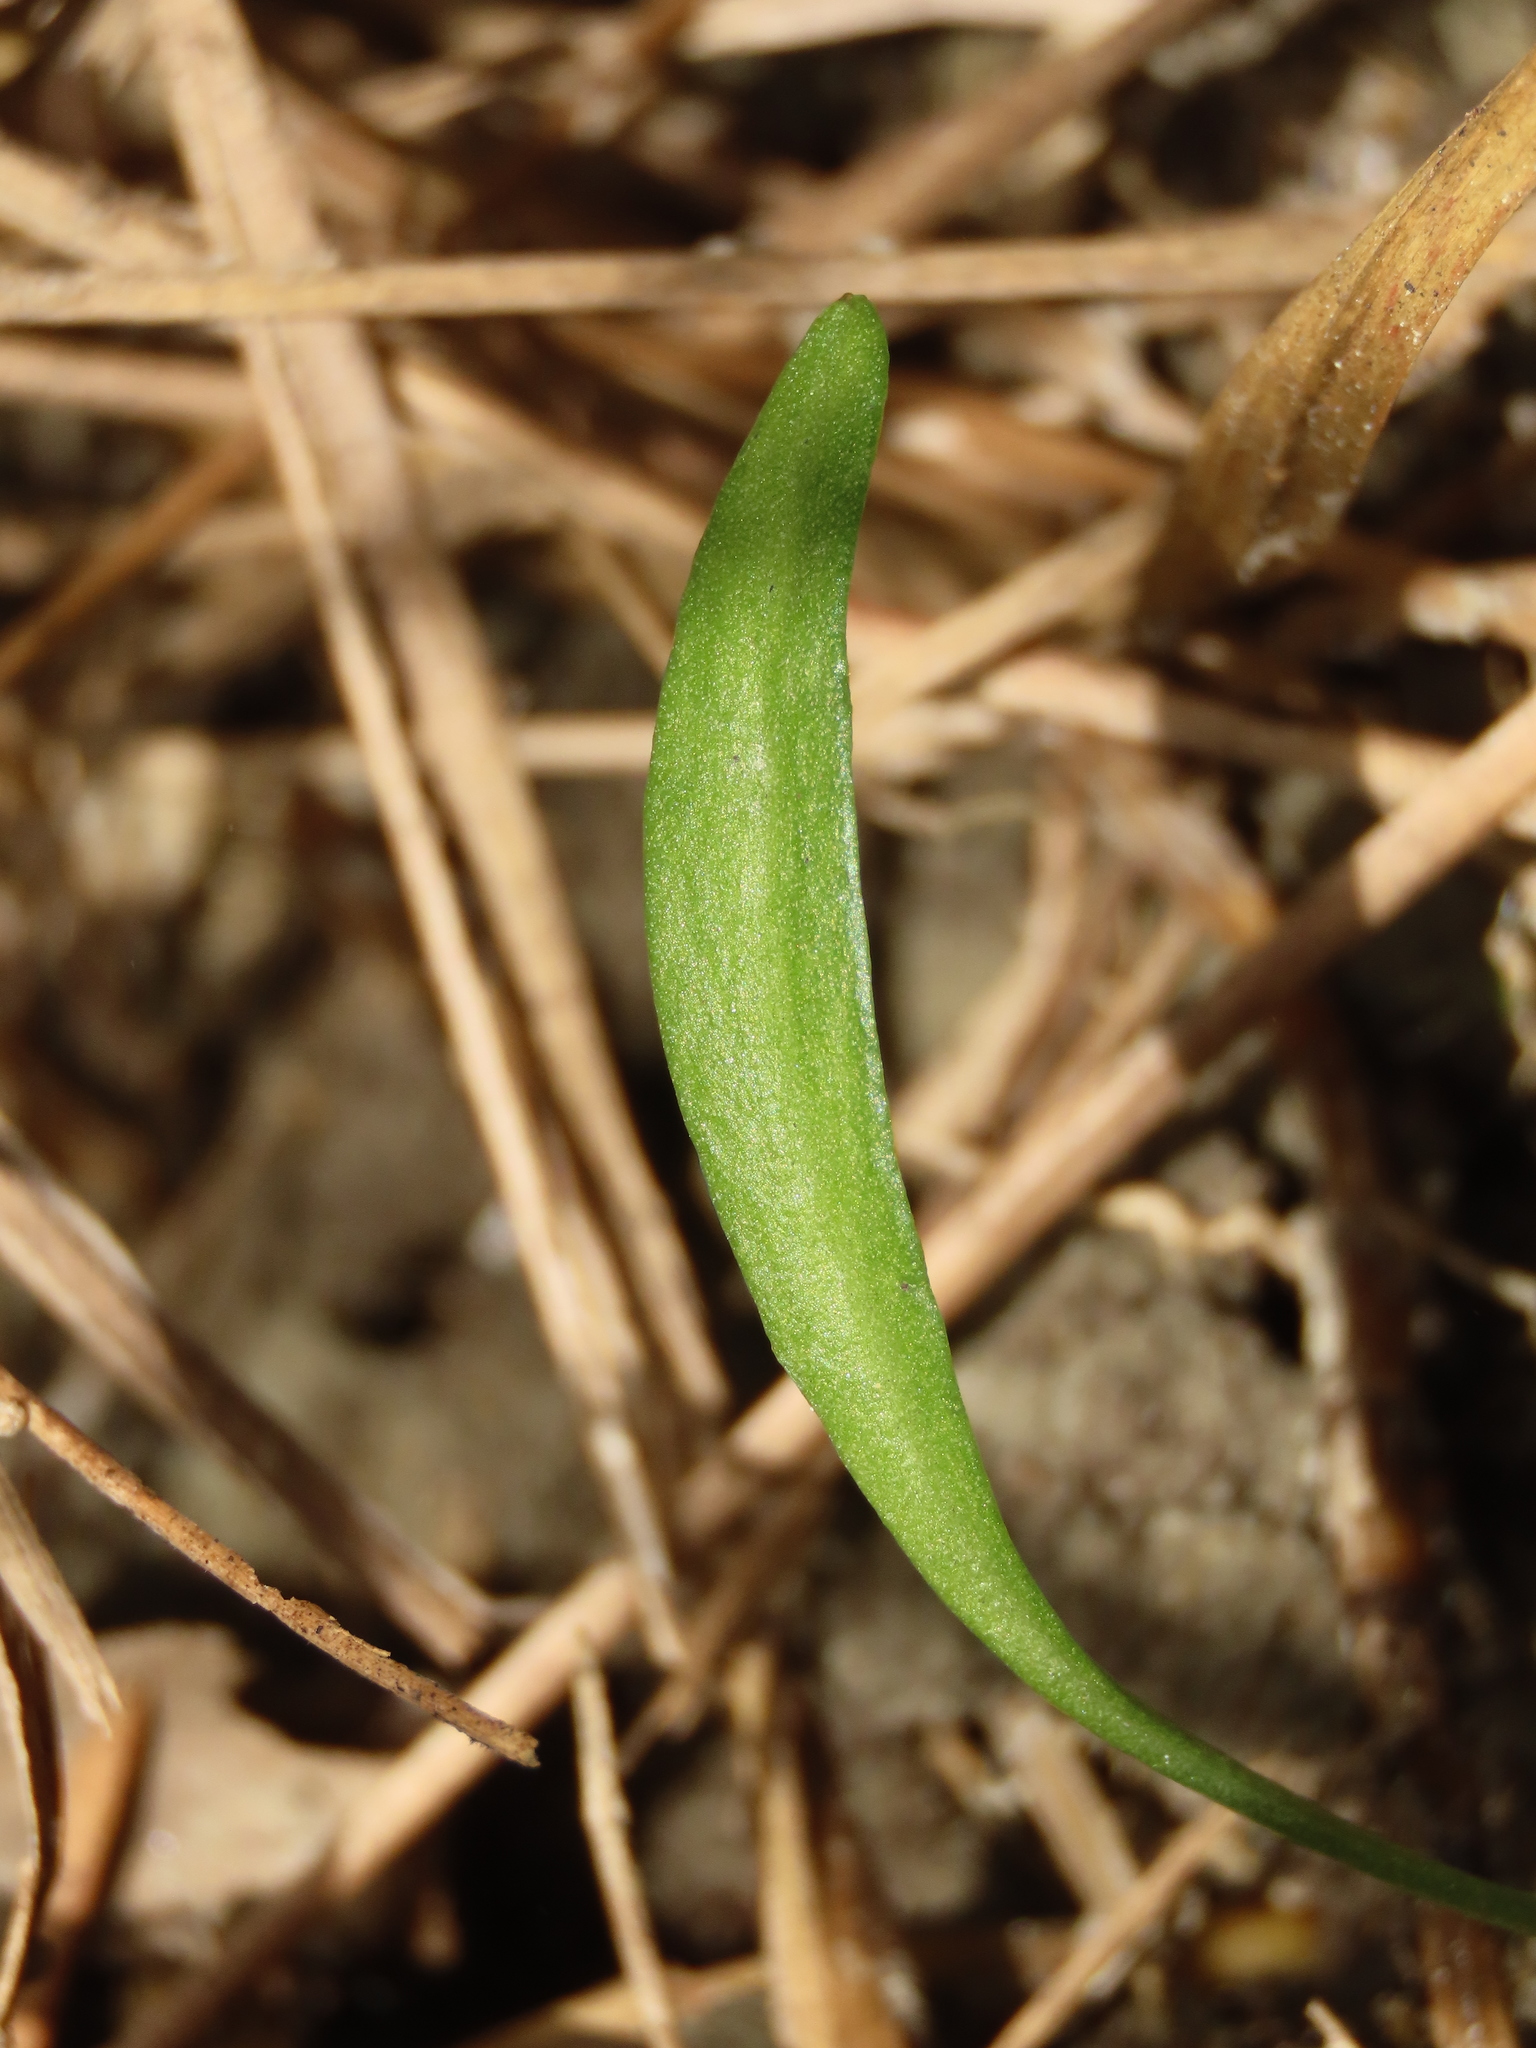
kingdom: Plantae
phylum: Tracheophyta
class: Polypodiopsida
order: Ophioglossales
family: Ophioglossaceae
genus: Ophioglossum
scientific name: Ophioglossum thermale
